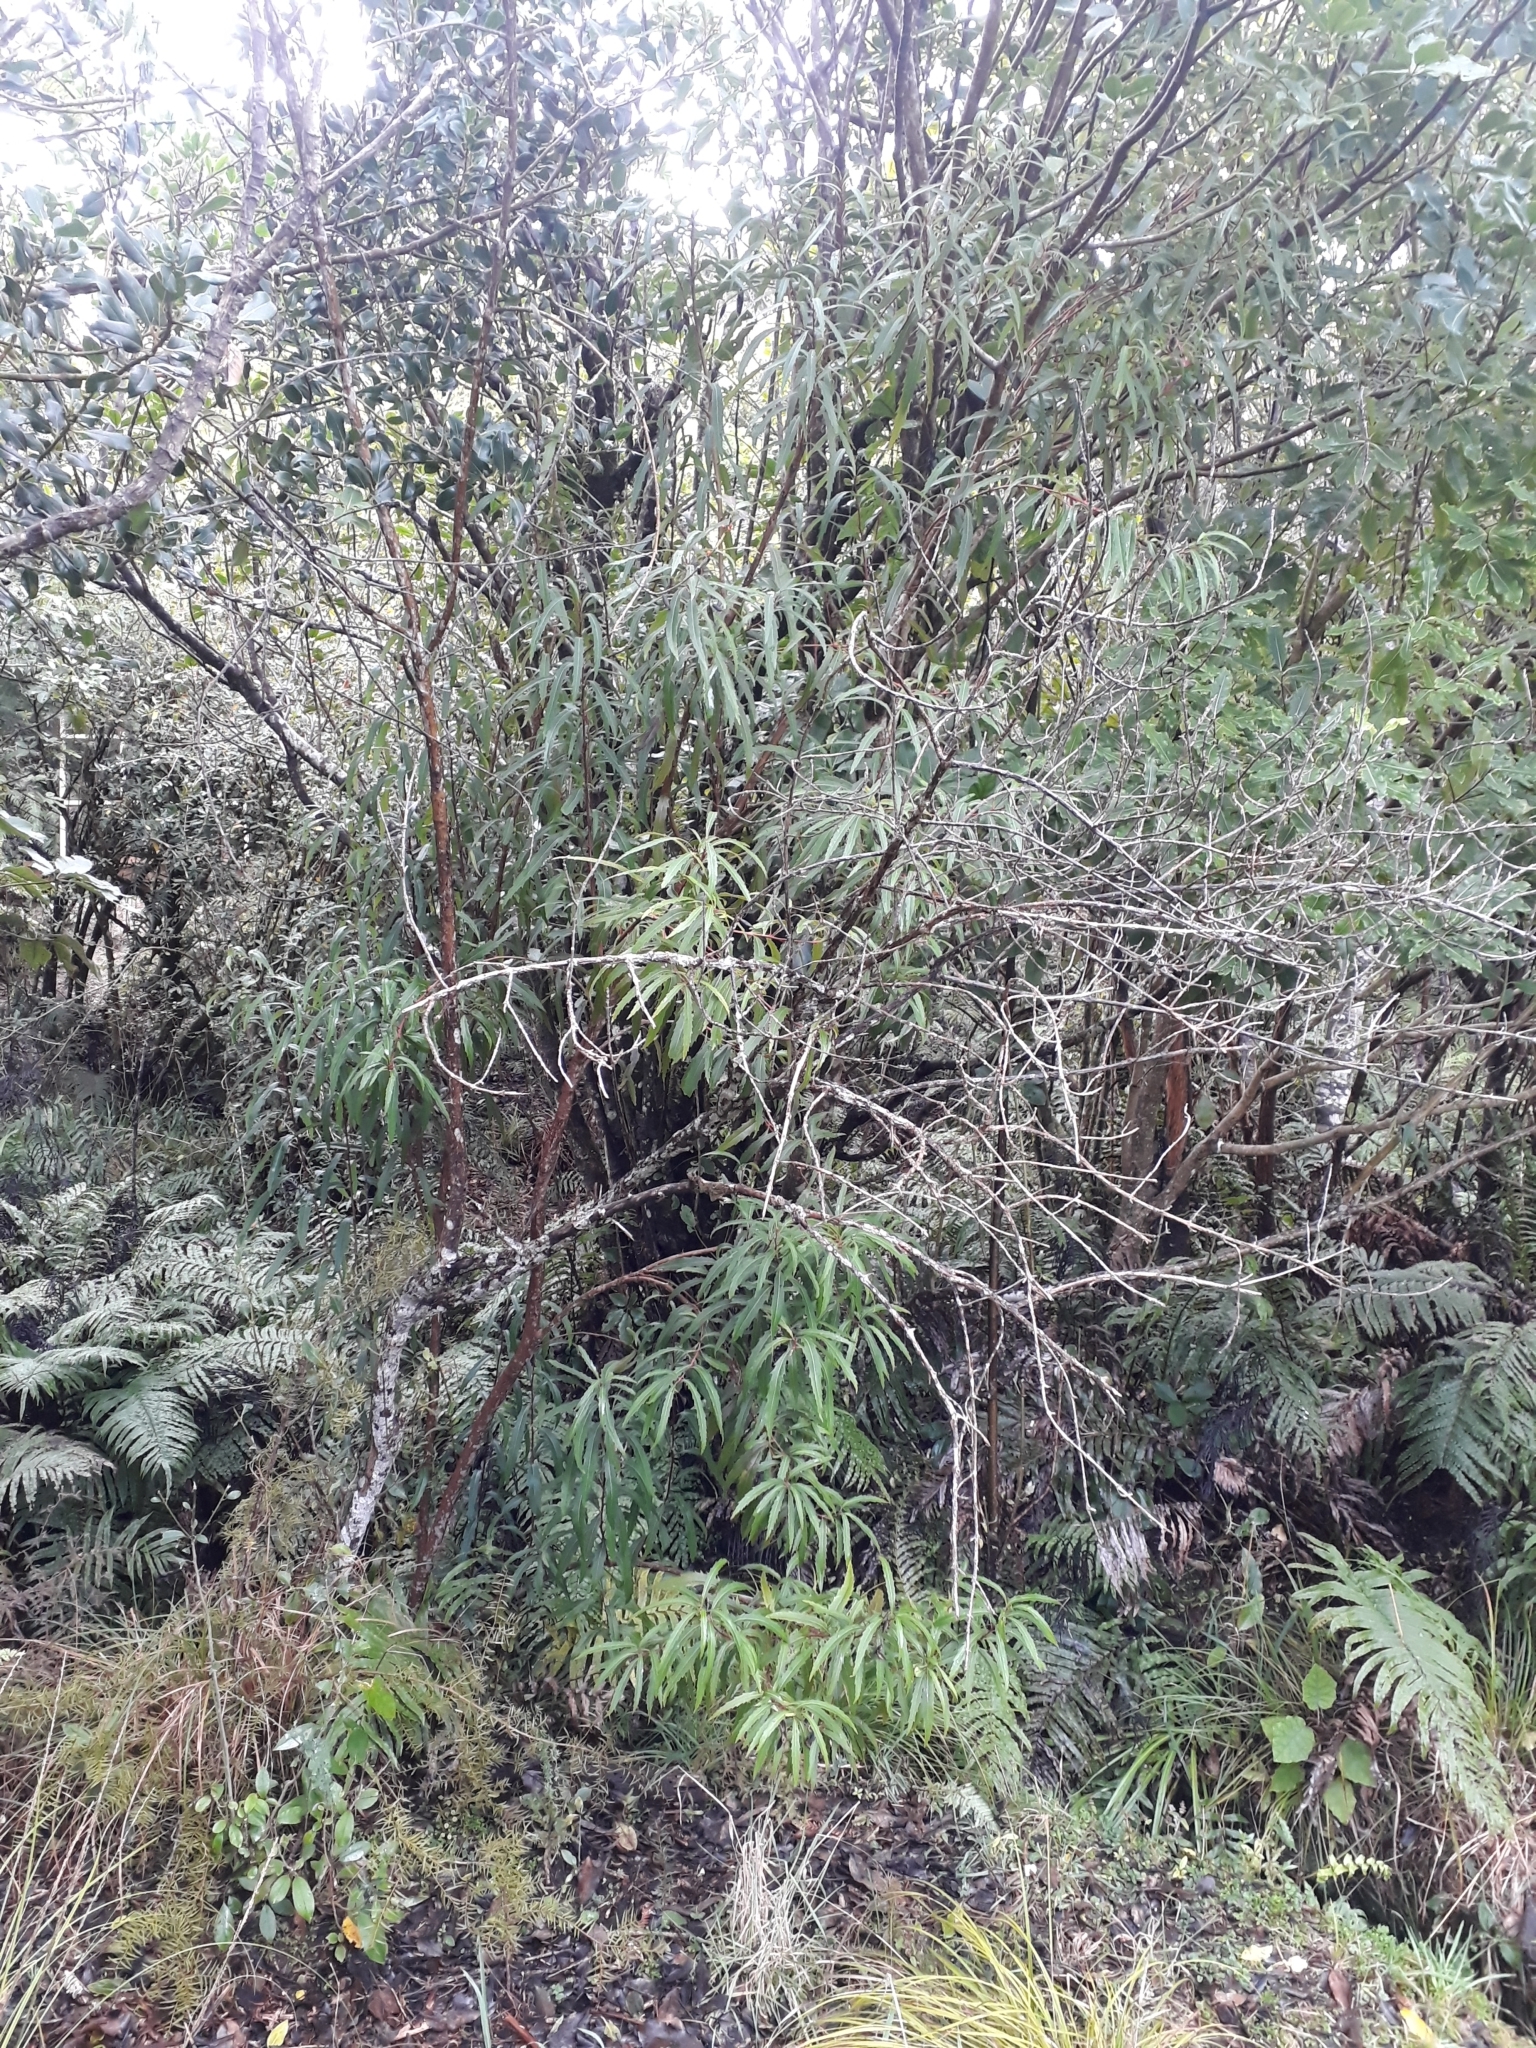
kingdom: Plantae
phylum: Tracheophyta
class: Magnoliopsida
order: Proteales
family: Proteaceae
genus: Lomatia
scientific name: Lomatia fraseri
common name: Forest lomatia
